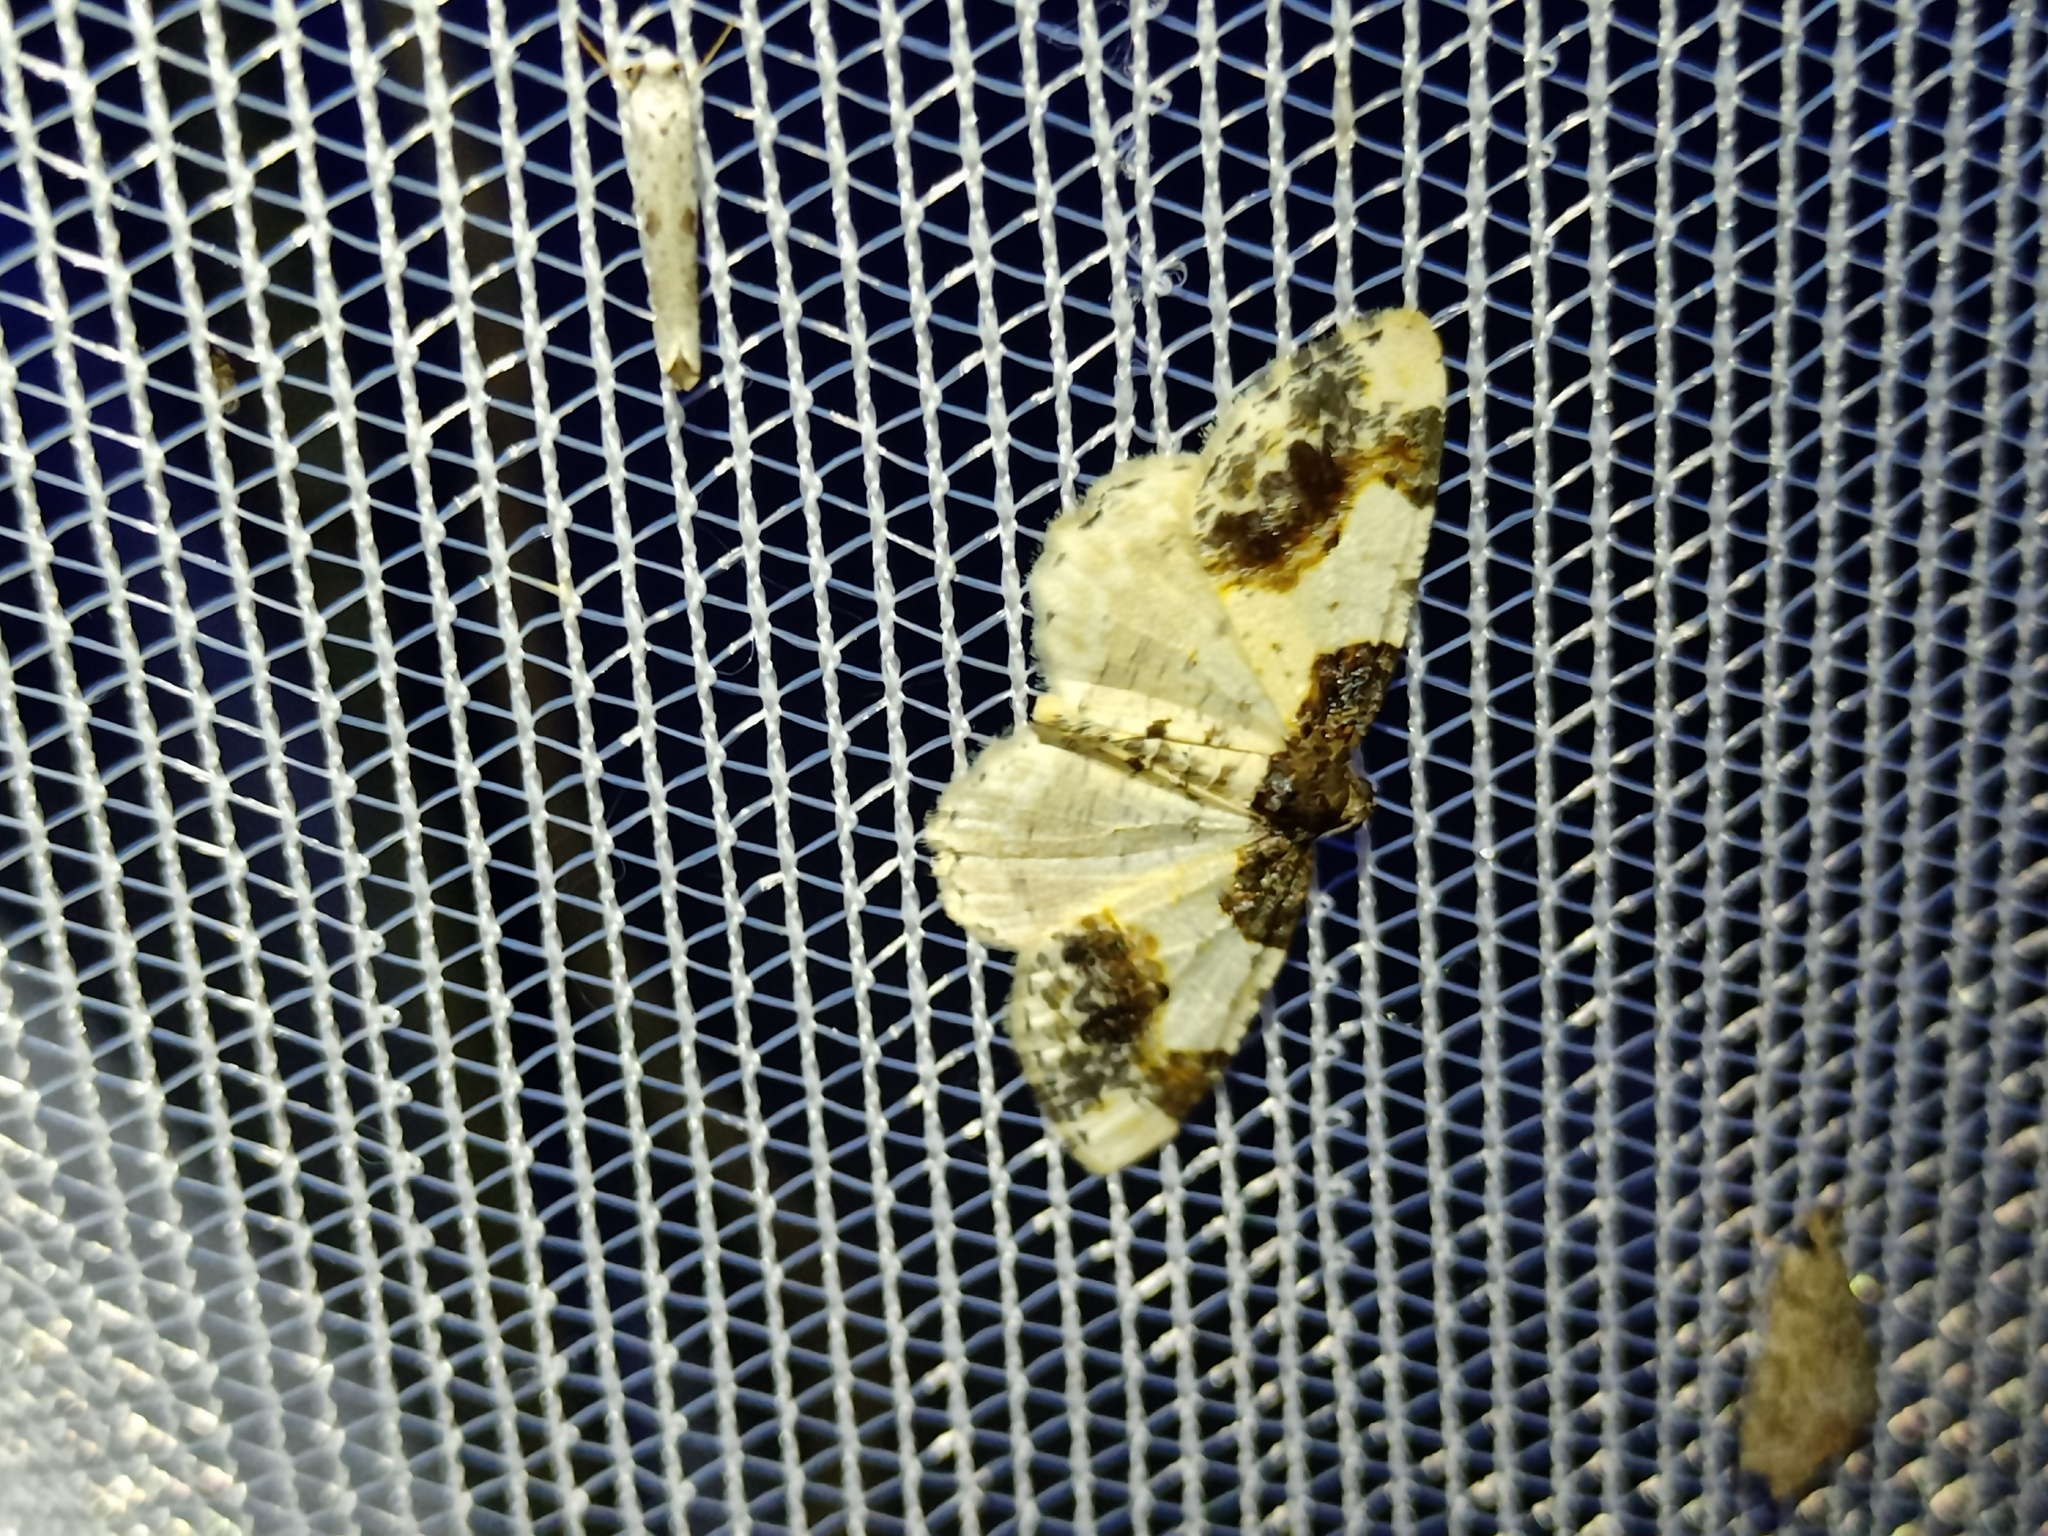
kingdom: Animalia
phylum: Arthropoda
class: Insecta
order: Lepidoptera
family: Geometridae
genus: Ligdia
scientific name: Ligdia adustata
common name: Scorched carpet
